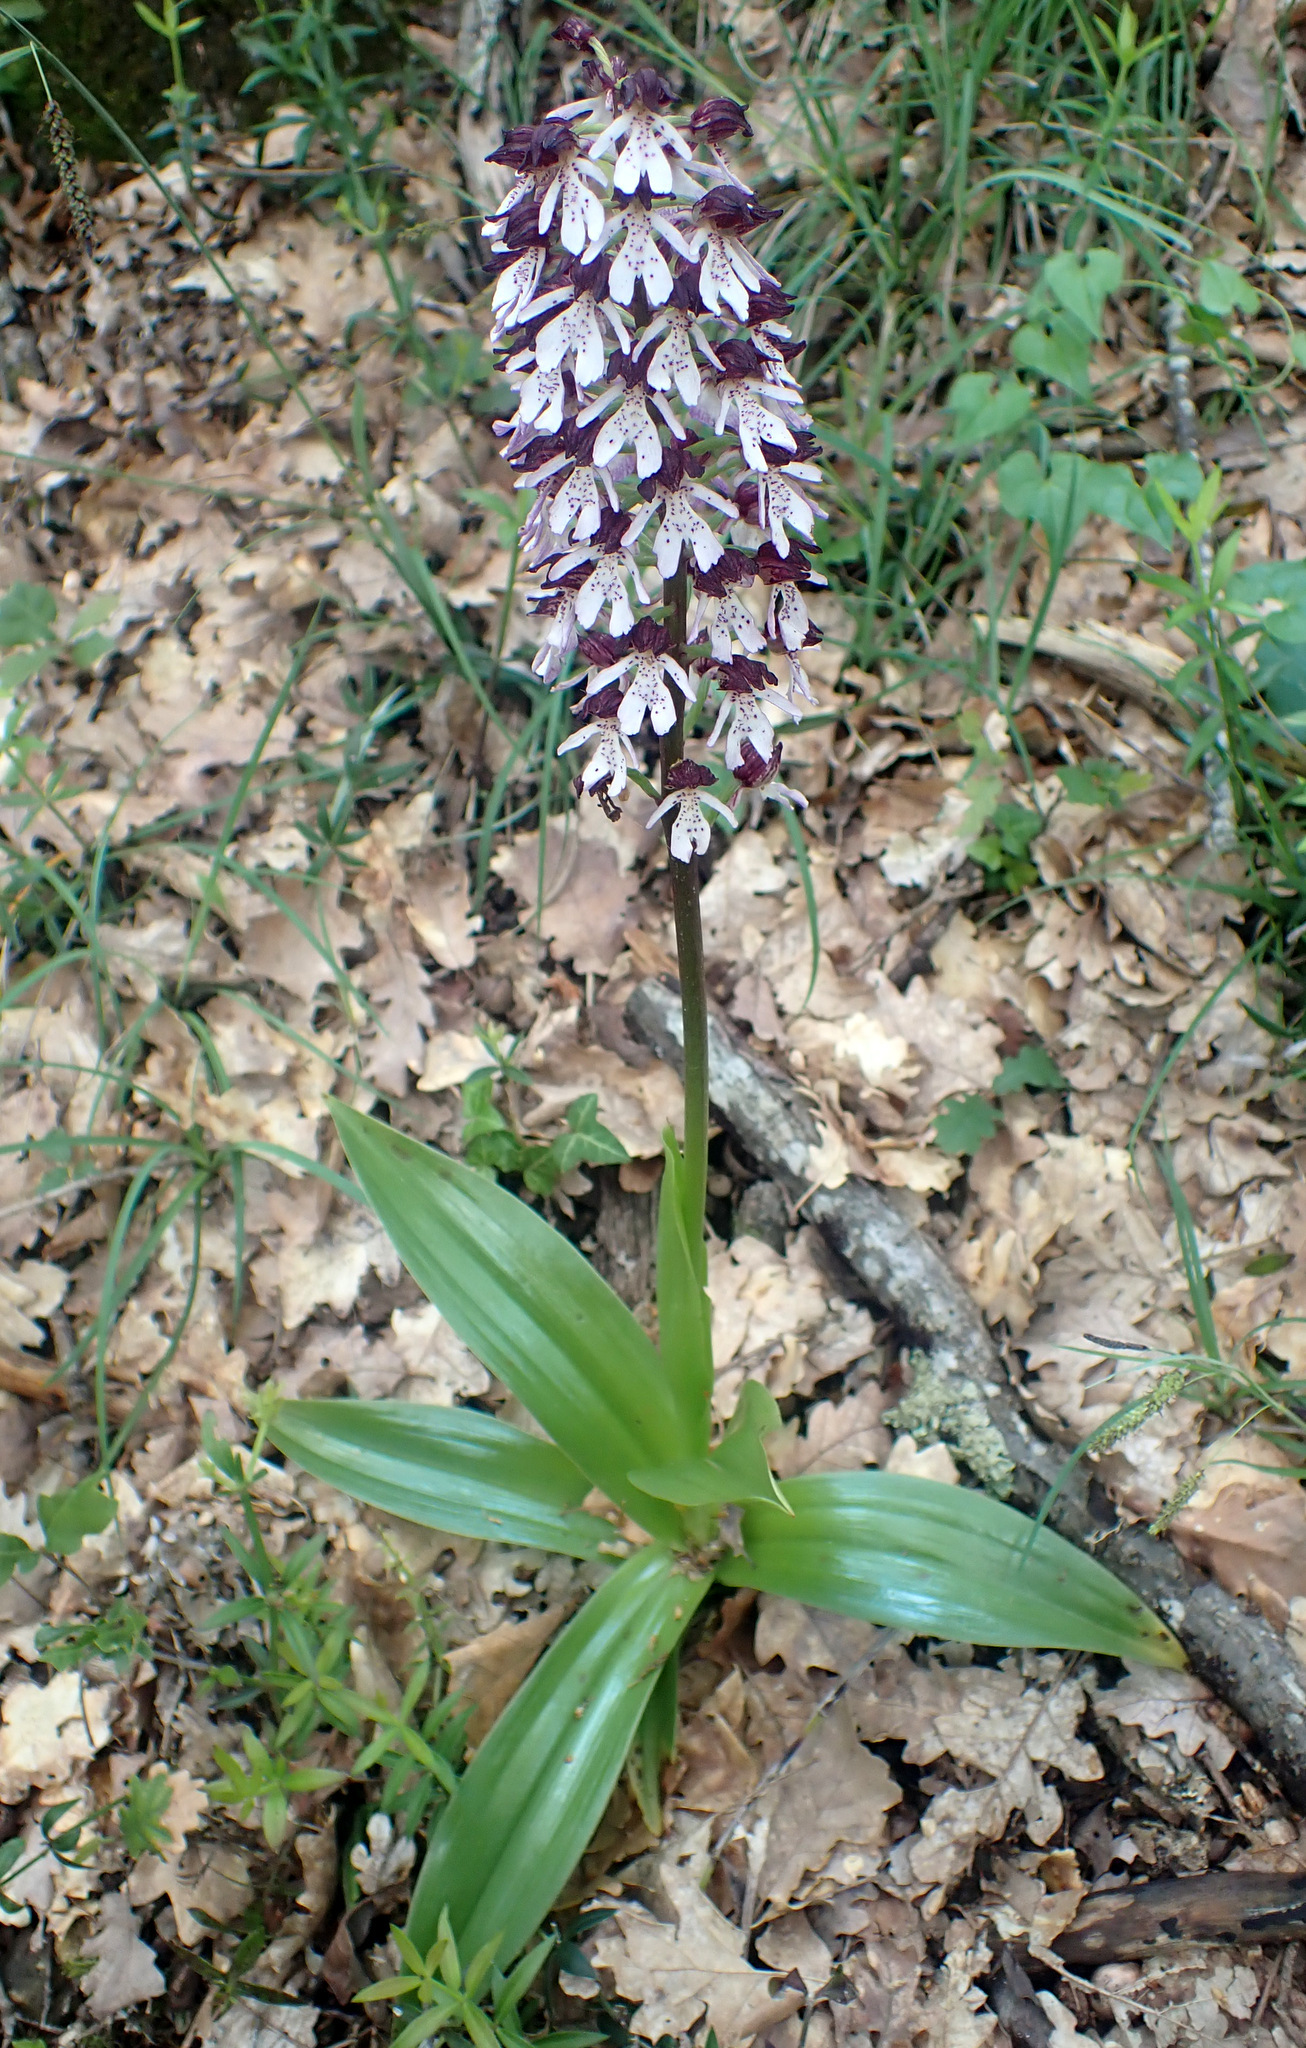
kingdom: Plantae
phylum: Tracheophyta
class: Liliopsida
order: Asparagales
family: Orchidaceae
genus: Orchis
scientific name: Orchis purpurea
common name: Lady orchid
